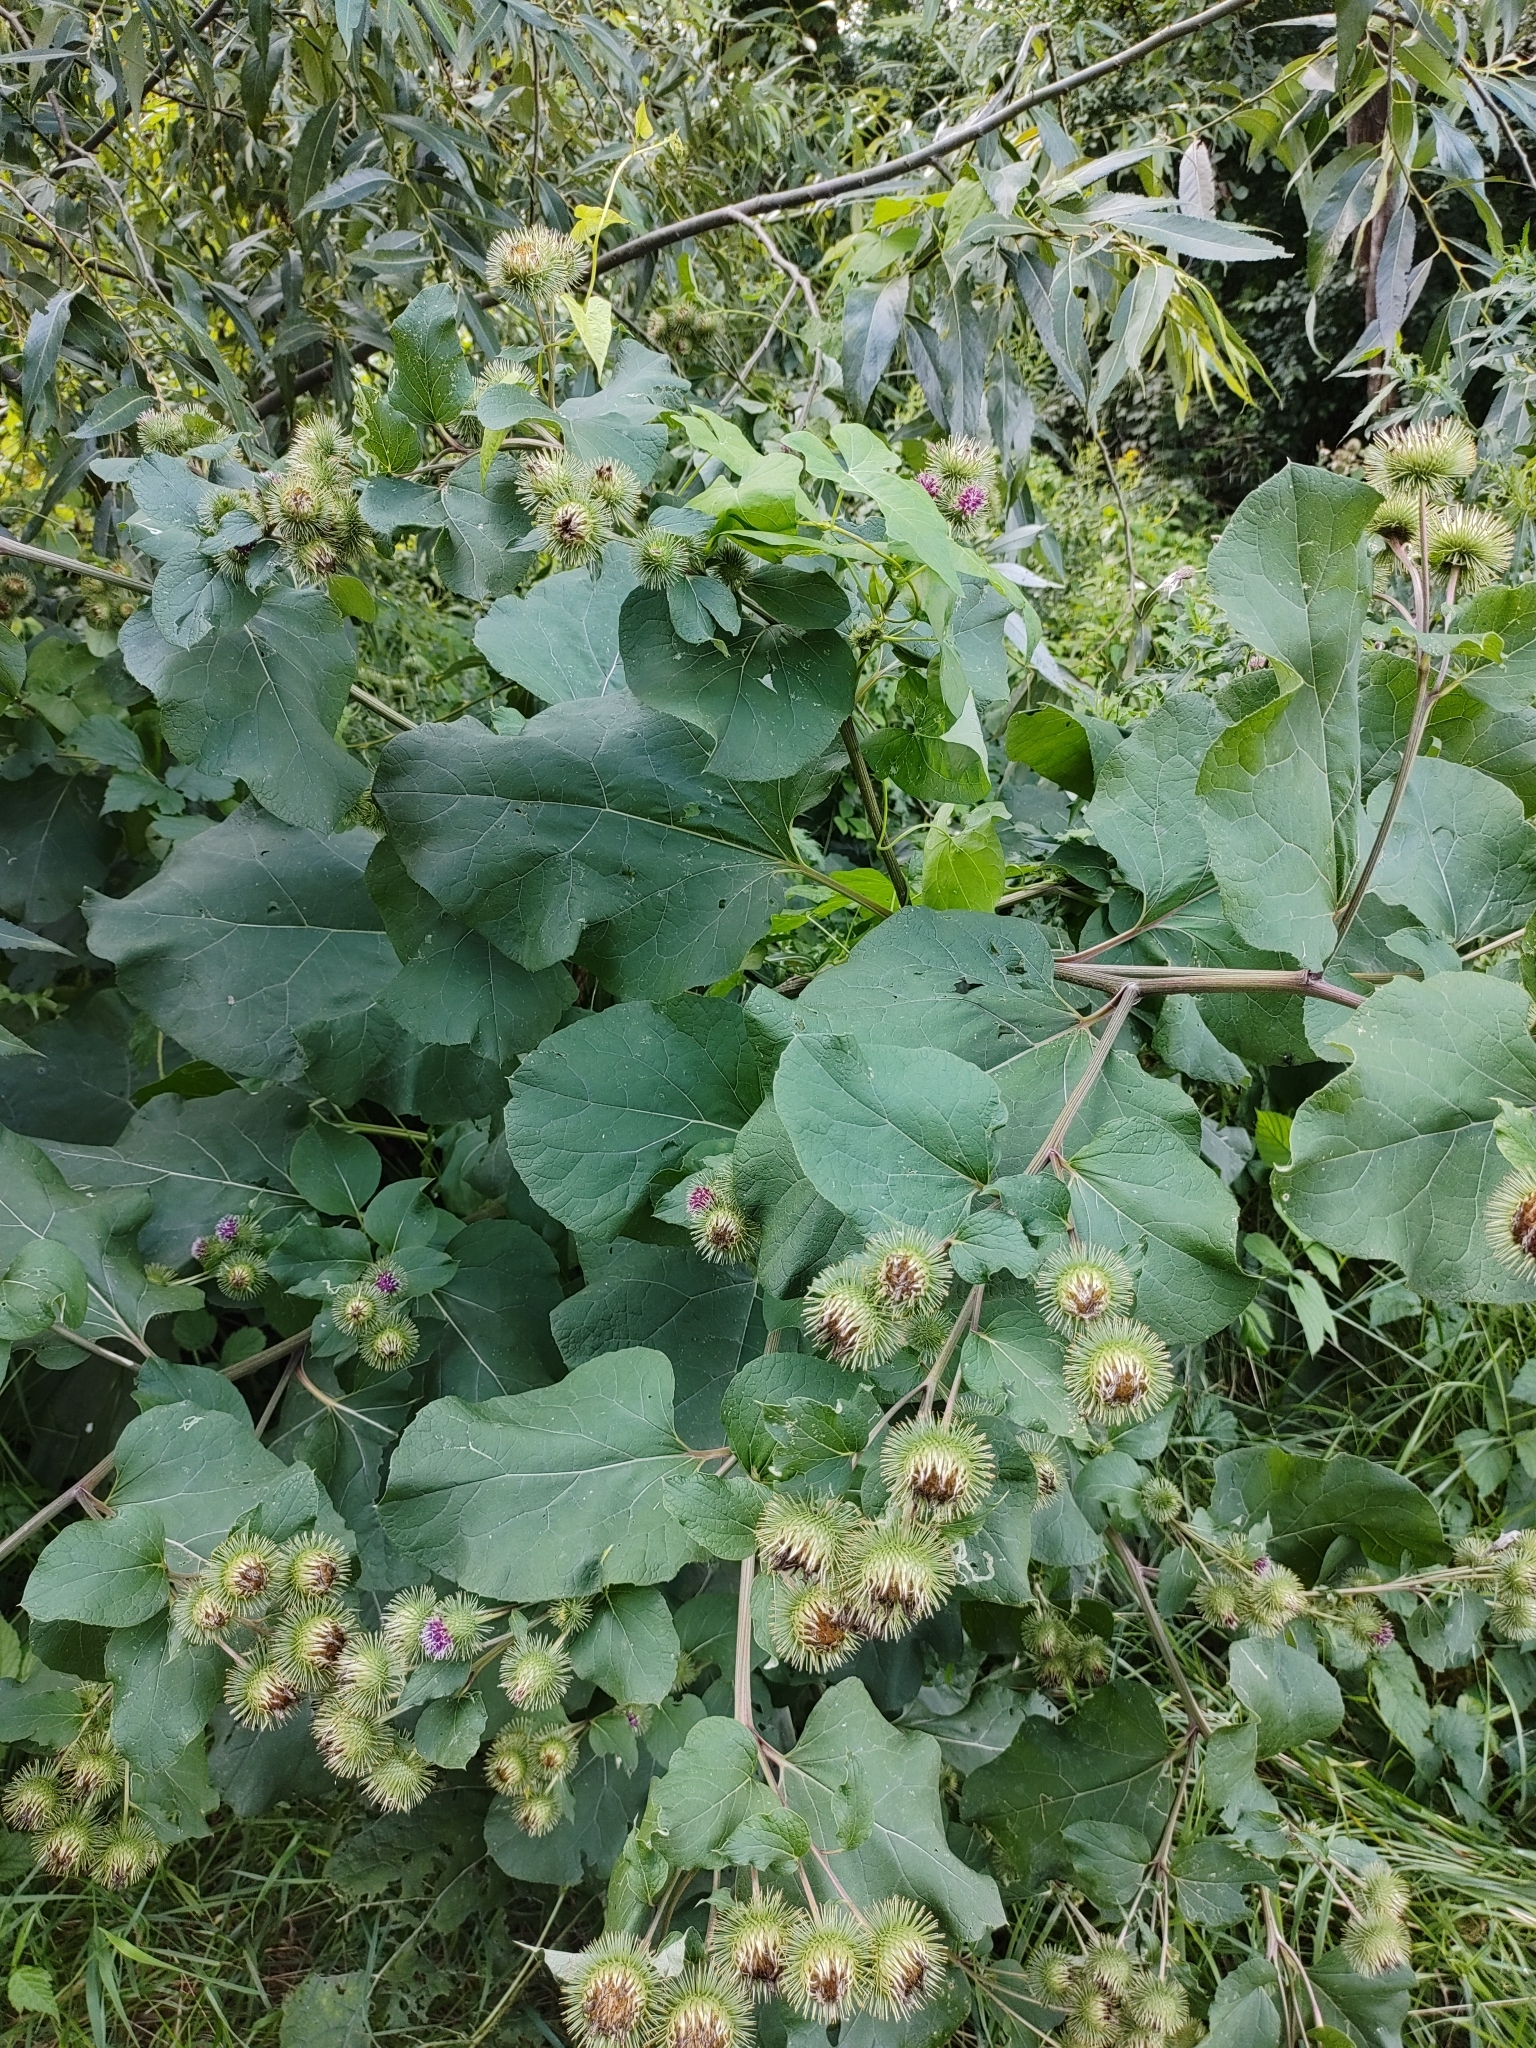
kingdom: Plantae
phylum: Tracheophyta
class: Magnoliopsida
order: Asterales
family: Asteraceae
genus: Arctium
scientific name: Arctium lappa
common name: Greater burdock
